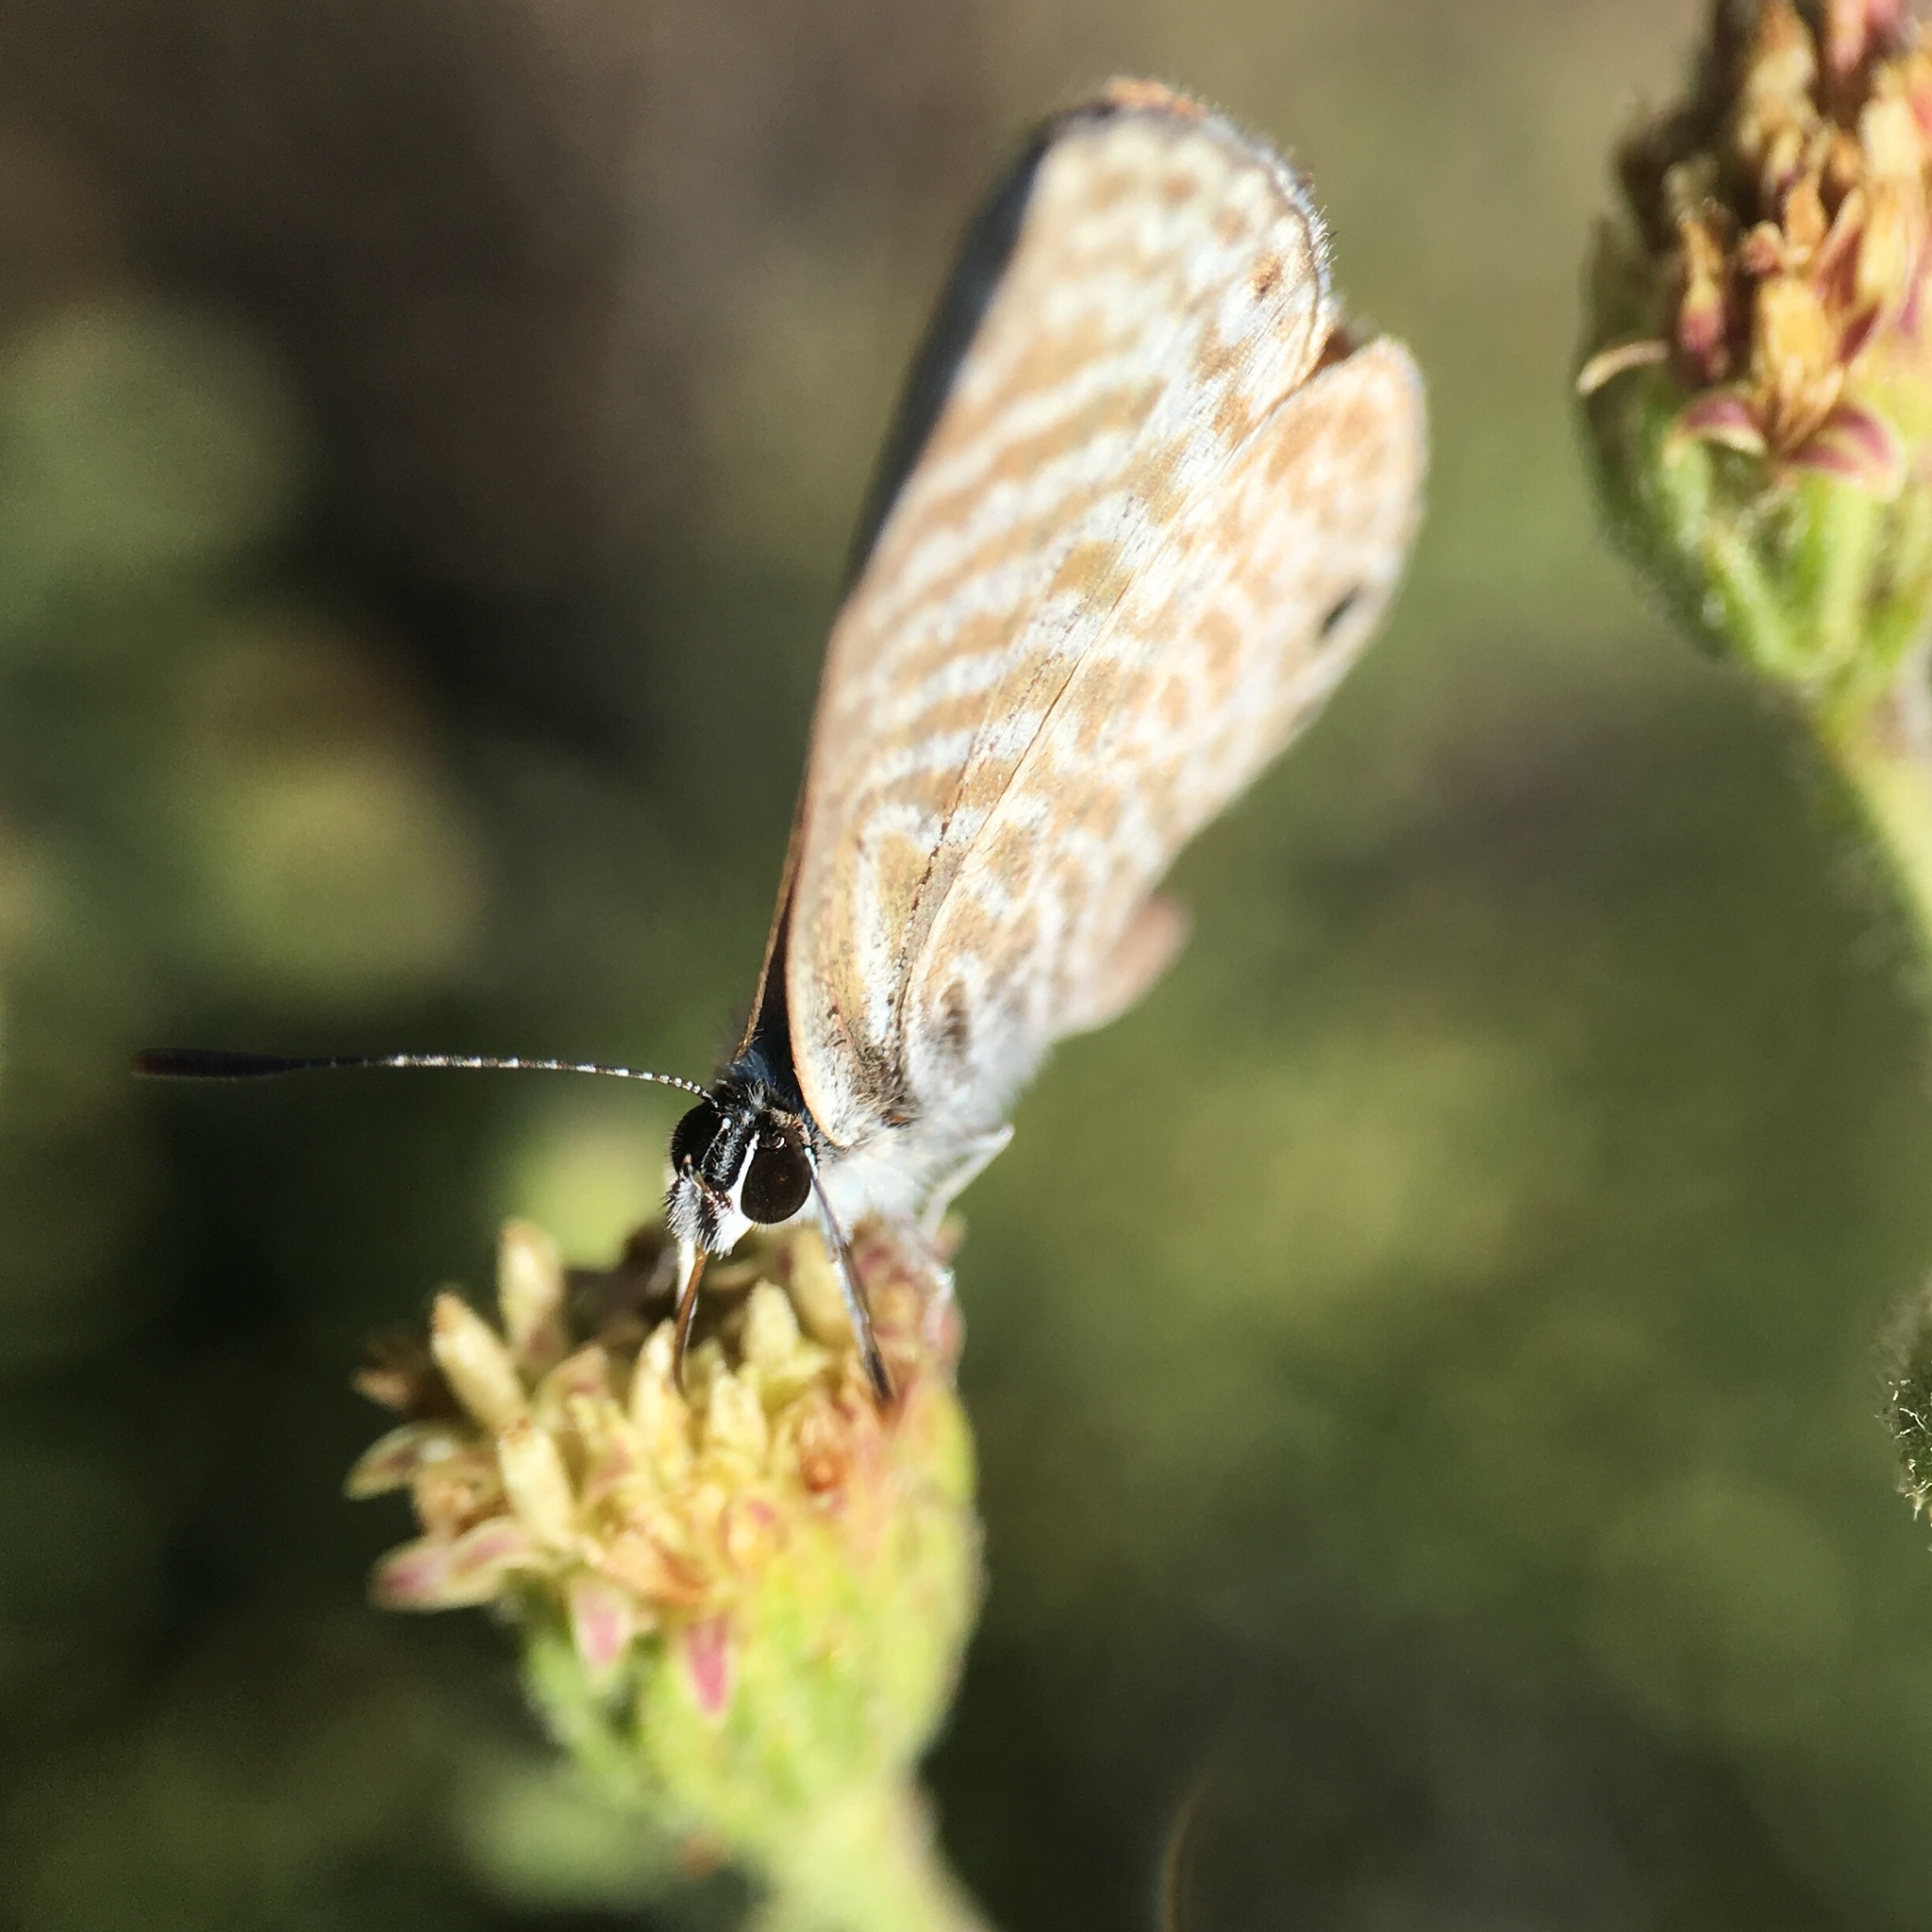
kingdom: Animalia
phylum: Arthropoda
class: Insecta
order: Lepidoptera
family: Lycaenidae
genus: Leptotes
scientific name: Leptotes marina
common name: Marine blue
